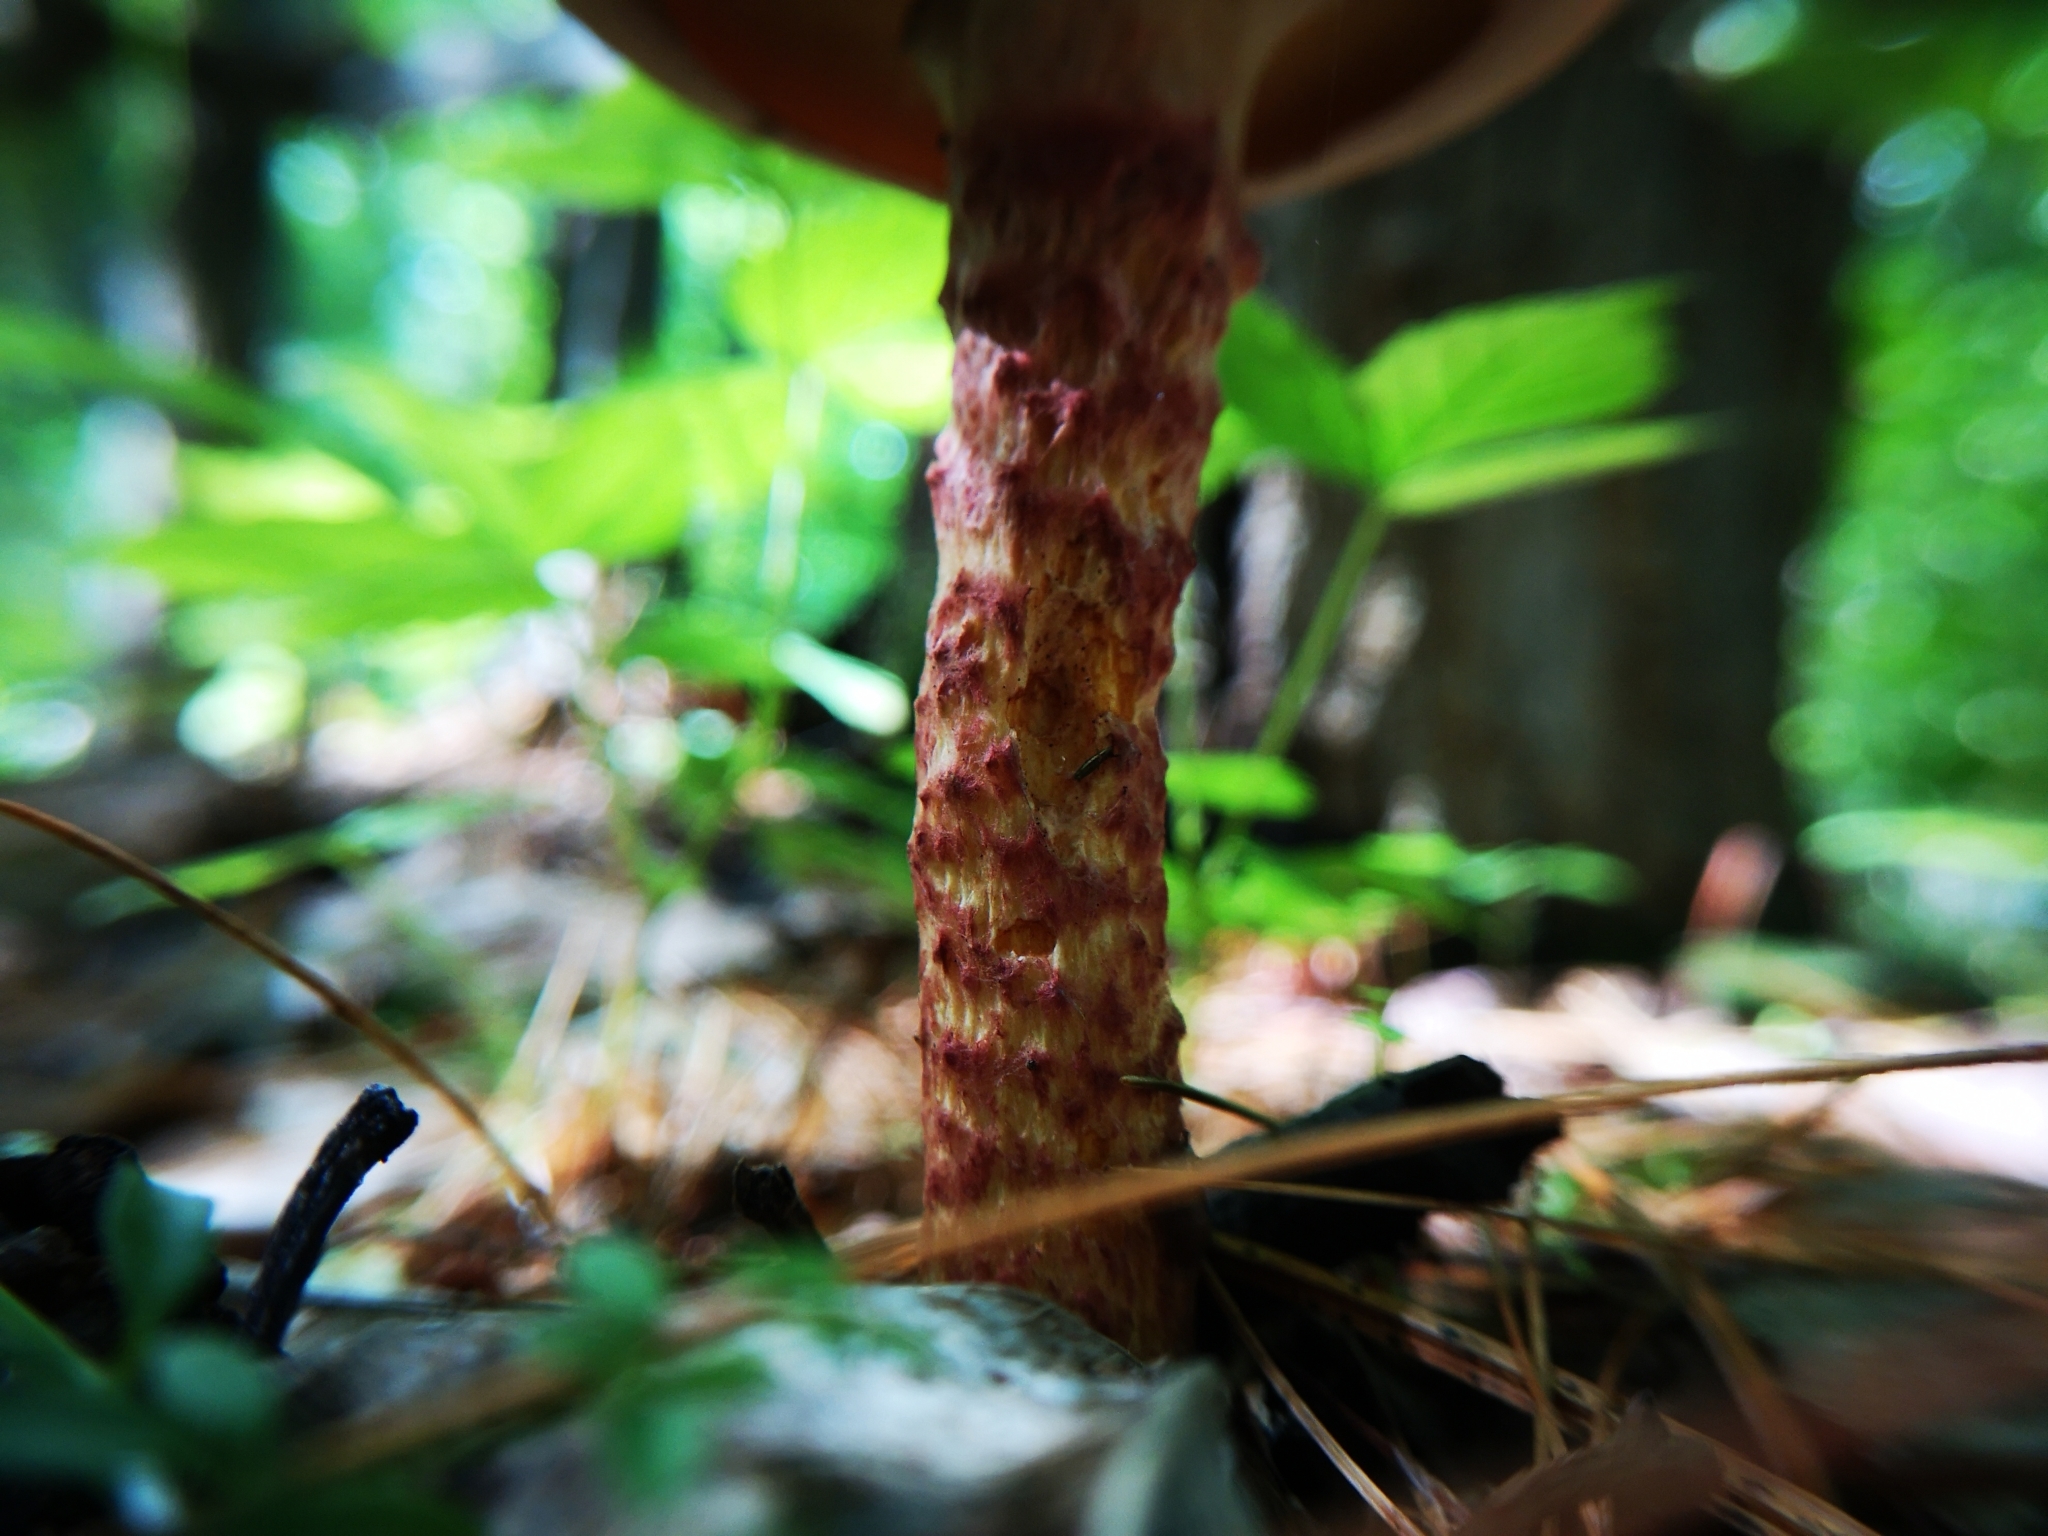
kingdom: Fungi
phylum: Basidiomycota
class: Agaricomycetes
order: Boletales
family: Suillaceae
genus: Suillus
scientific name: Suillus spraguei
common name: Painted suillus
